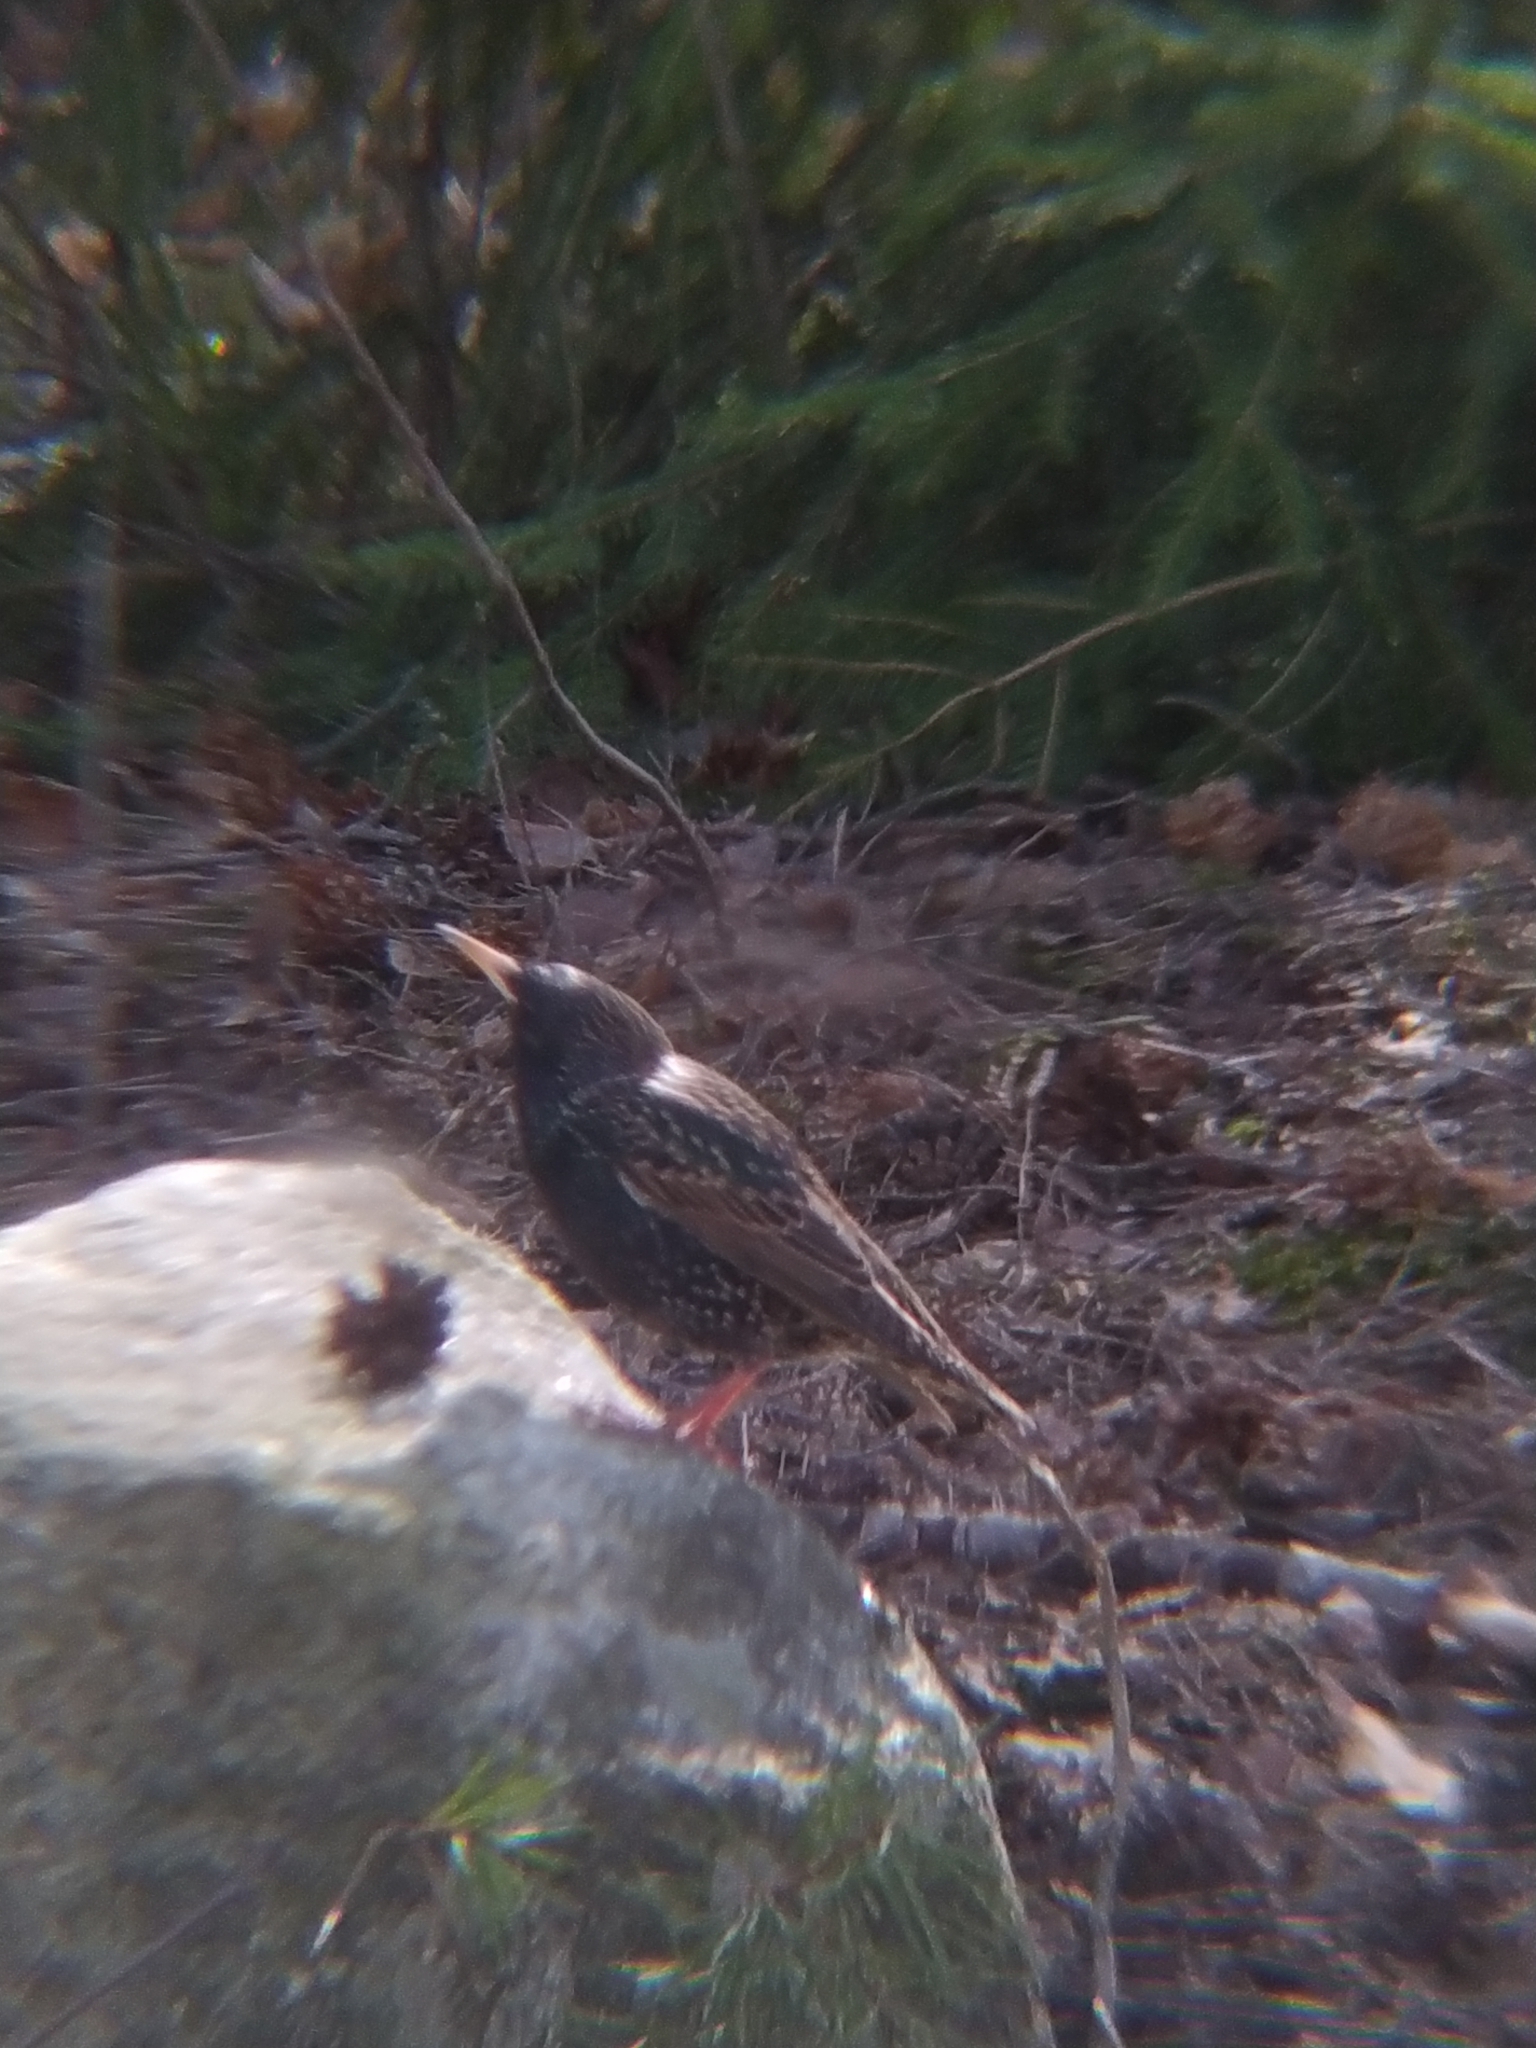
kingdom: Animalia
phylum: Chordata
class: Aves
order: Passeriformes
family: Sturnidae
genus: Sturnus
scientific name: Sturnus vulgaris
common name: Common starling
